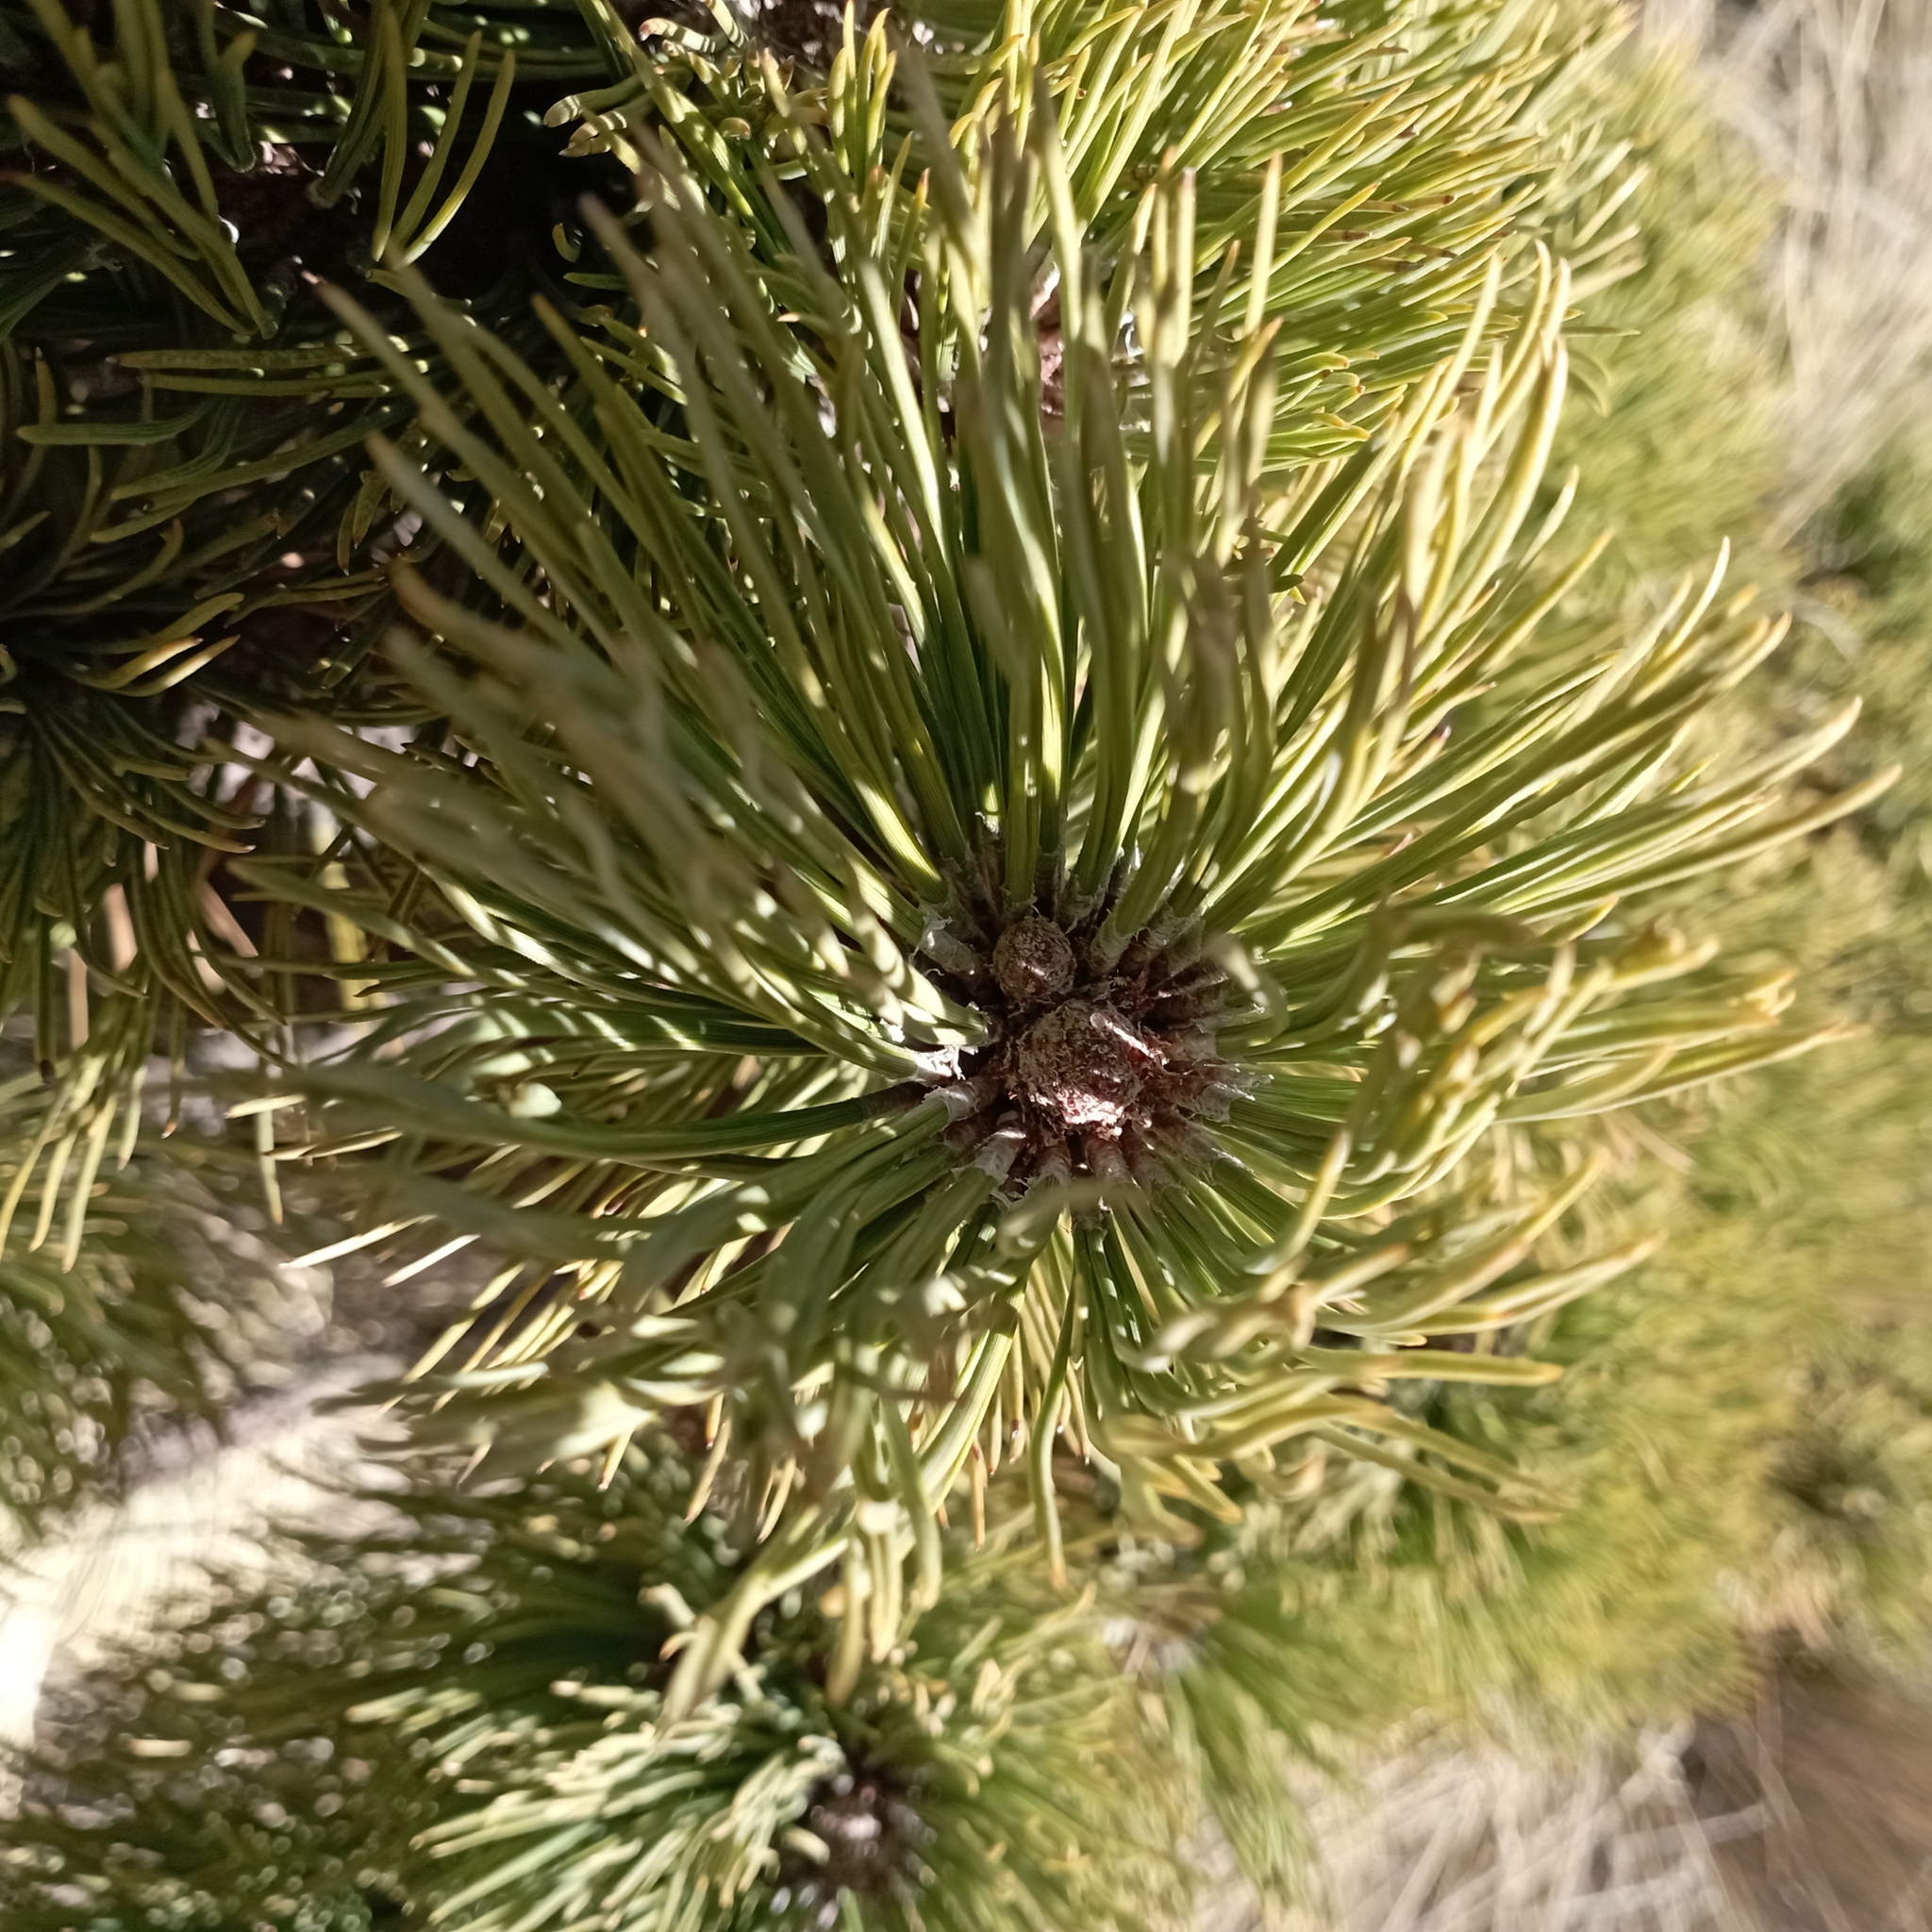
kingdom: Plantae
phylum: Tracheophyta
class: Pinopsida
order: Pinales
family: Pinaceae
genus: Pinus
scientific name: Pinus hartwegii
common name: Hartweg's pine
